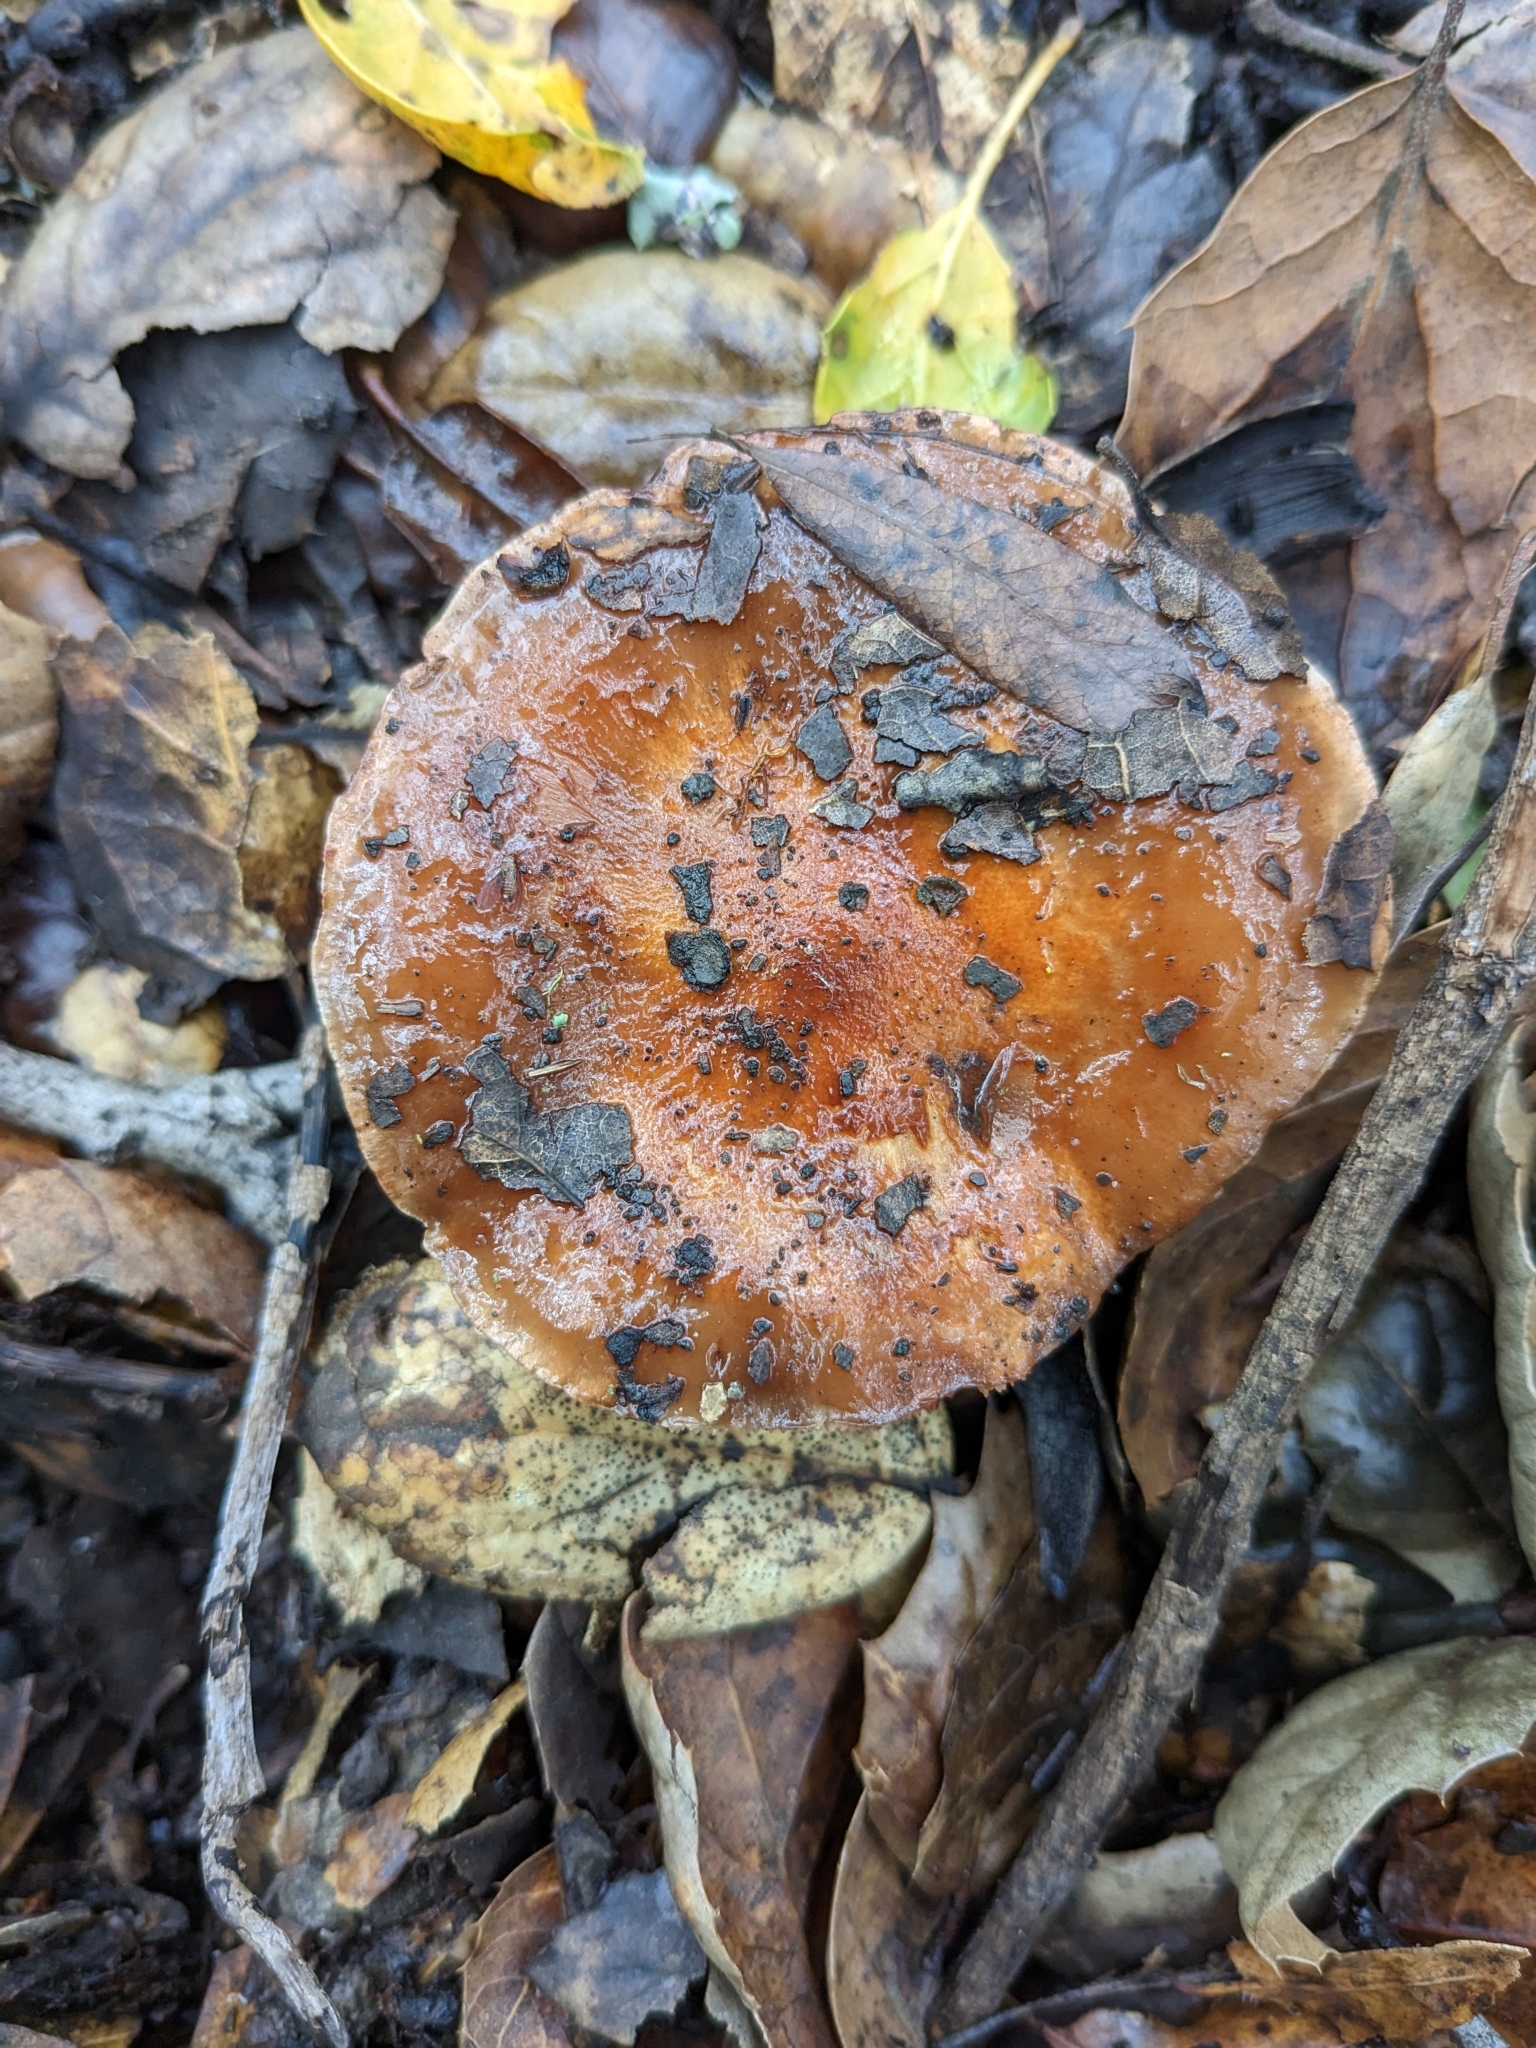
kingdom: Fungi
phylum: Basidiomycota
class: Agaricomycetes
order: Agaricales
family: Tricholomataceae
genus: Melanoleuca
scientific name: Melanoleuca dryophila
